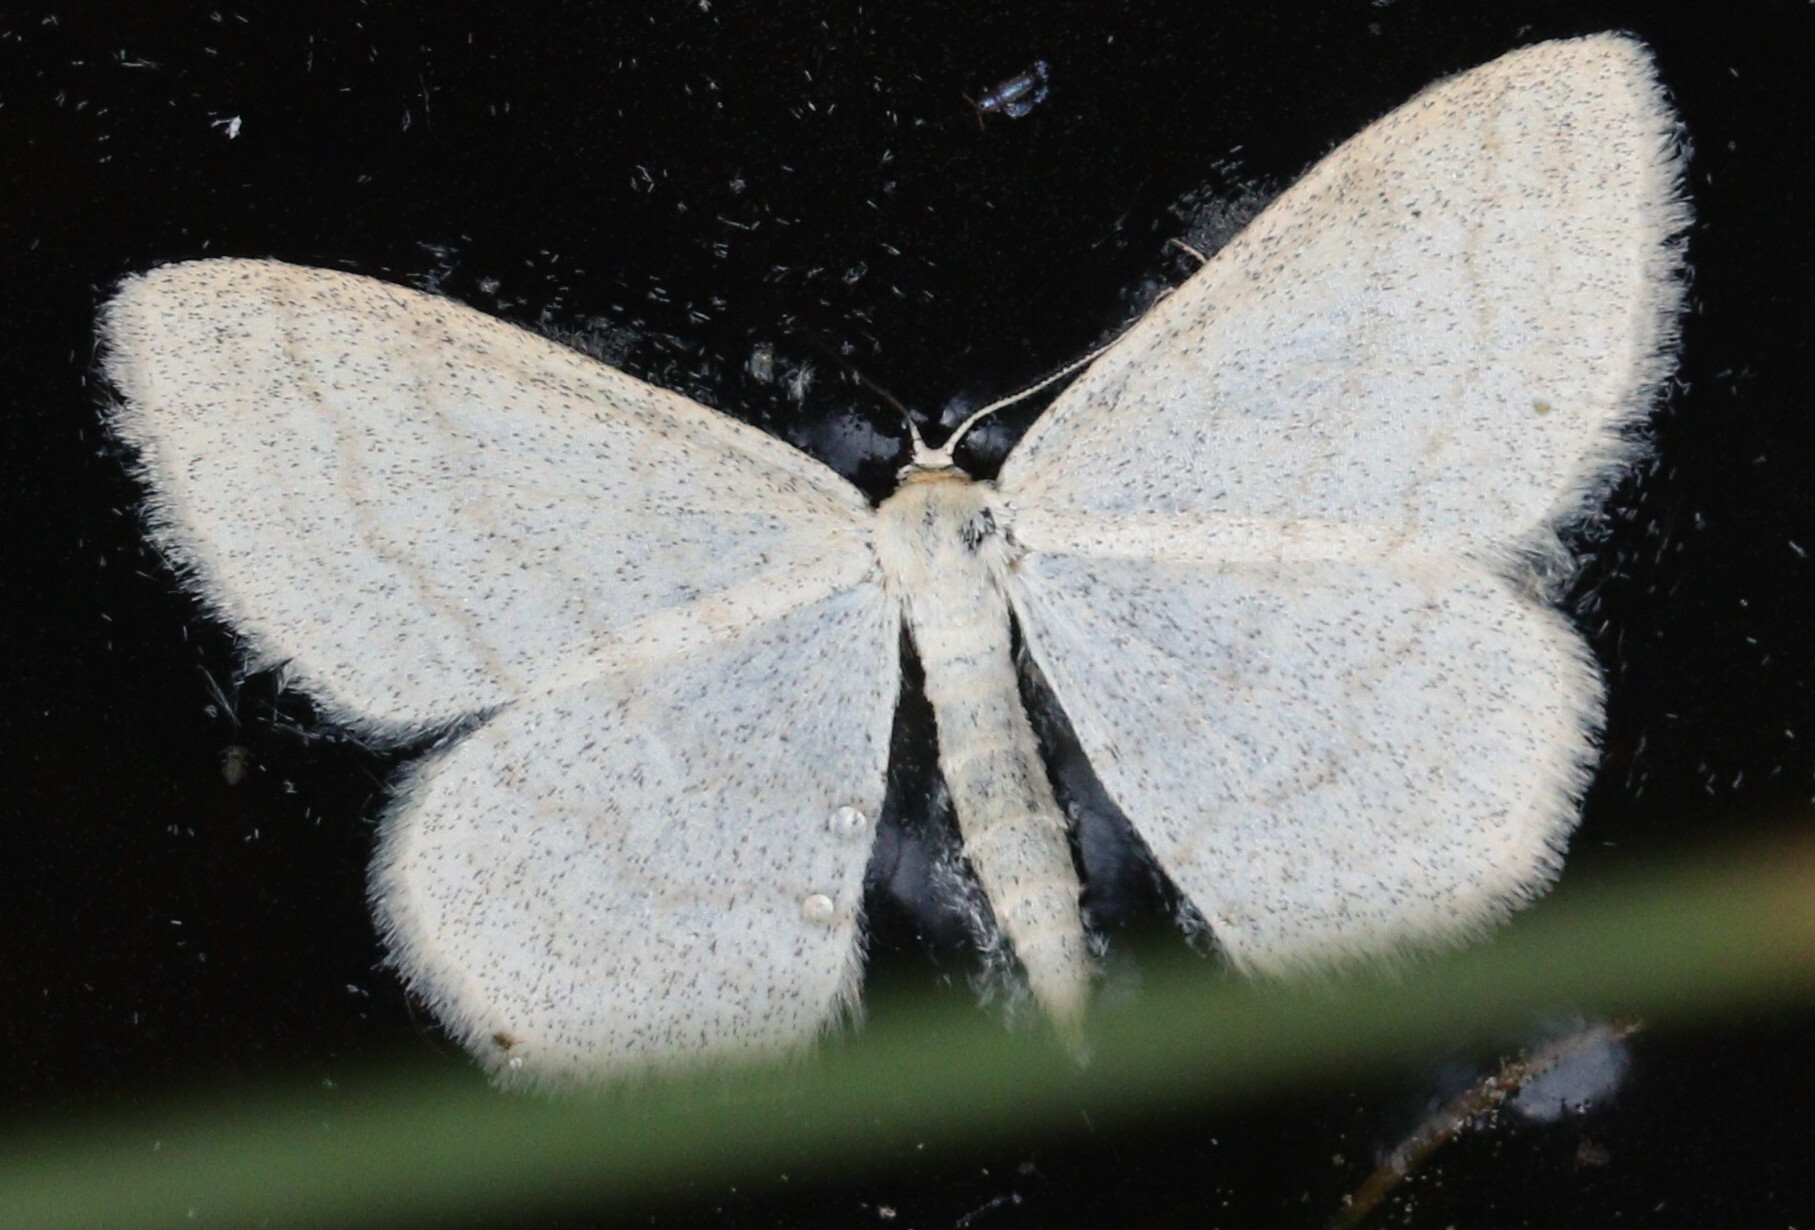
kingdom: Animalia
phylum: Arthropoda
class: Insecta
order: Lepidoptera
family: Geometridae
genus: Scopula
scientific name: Scopula ternata
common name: Smoky wave
